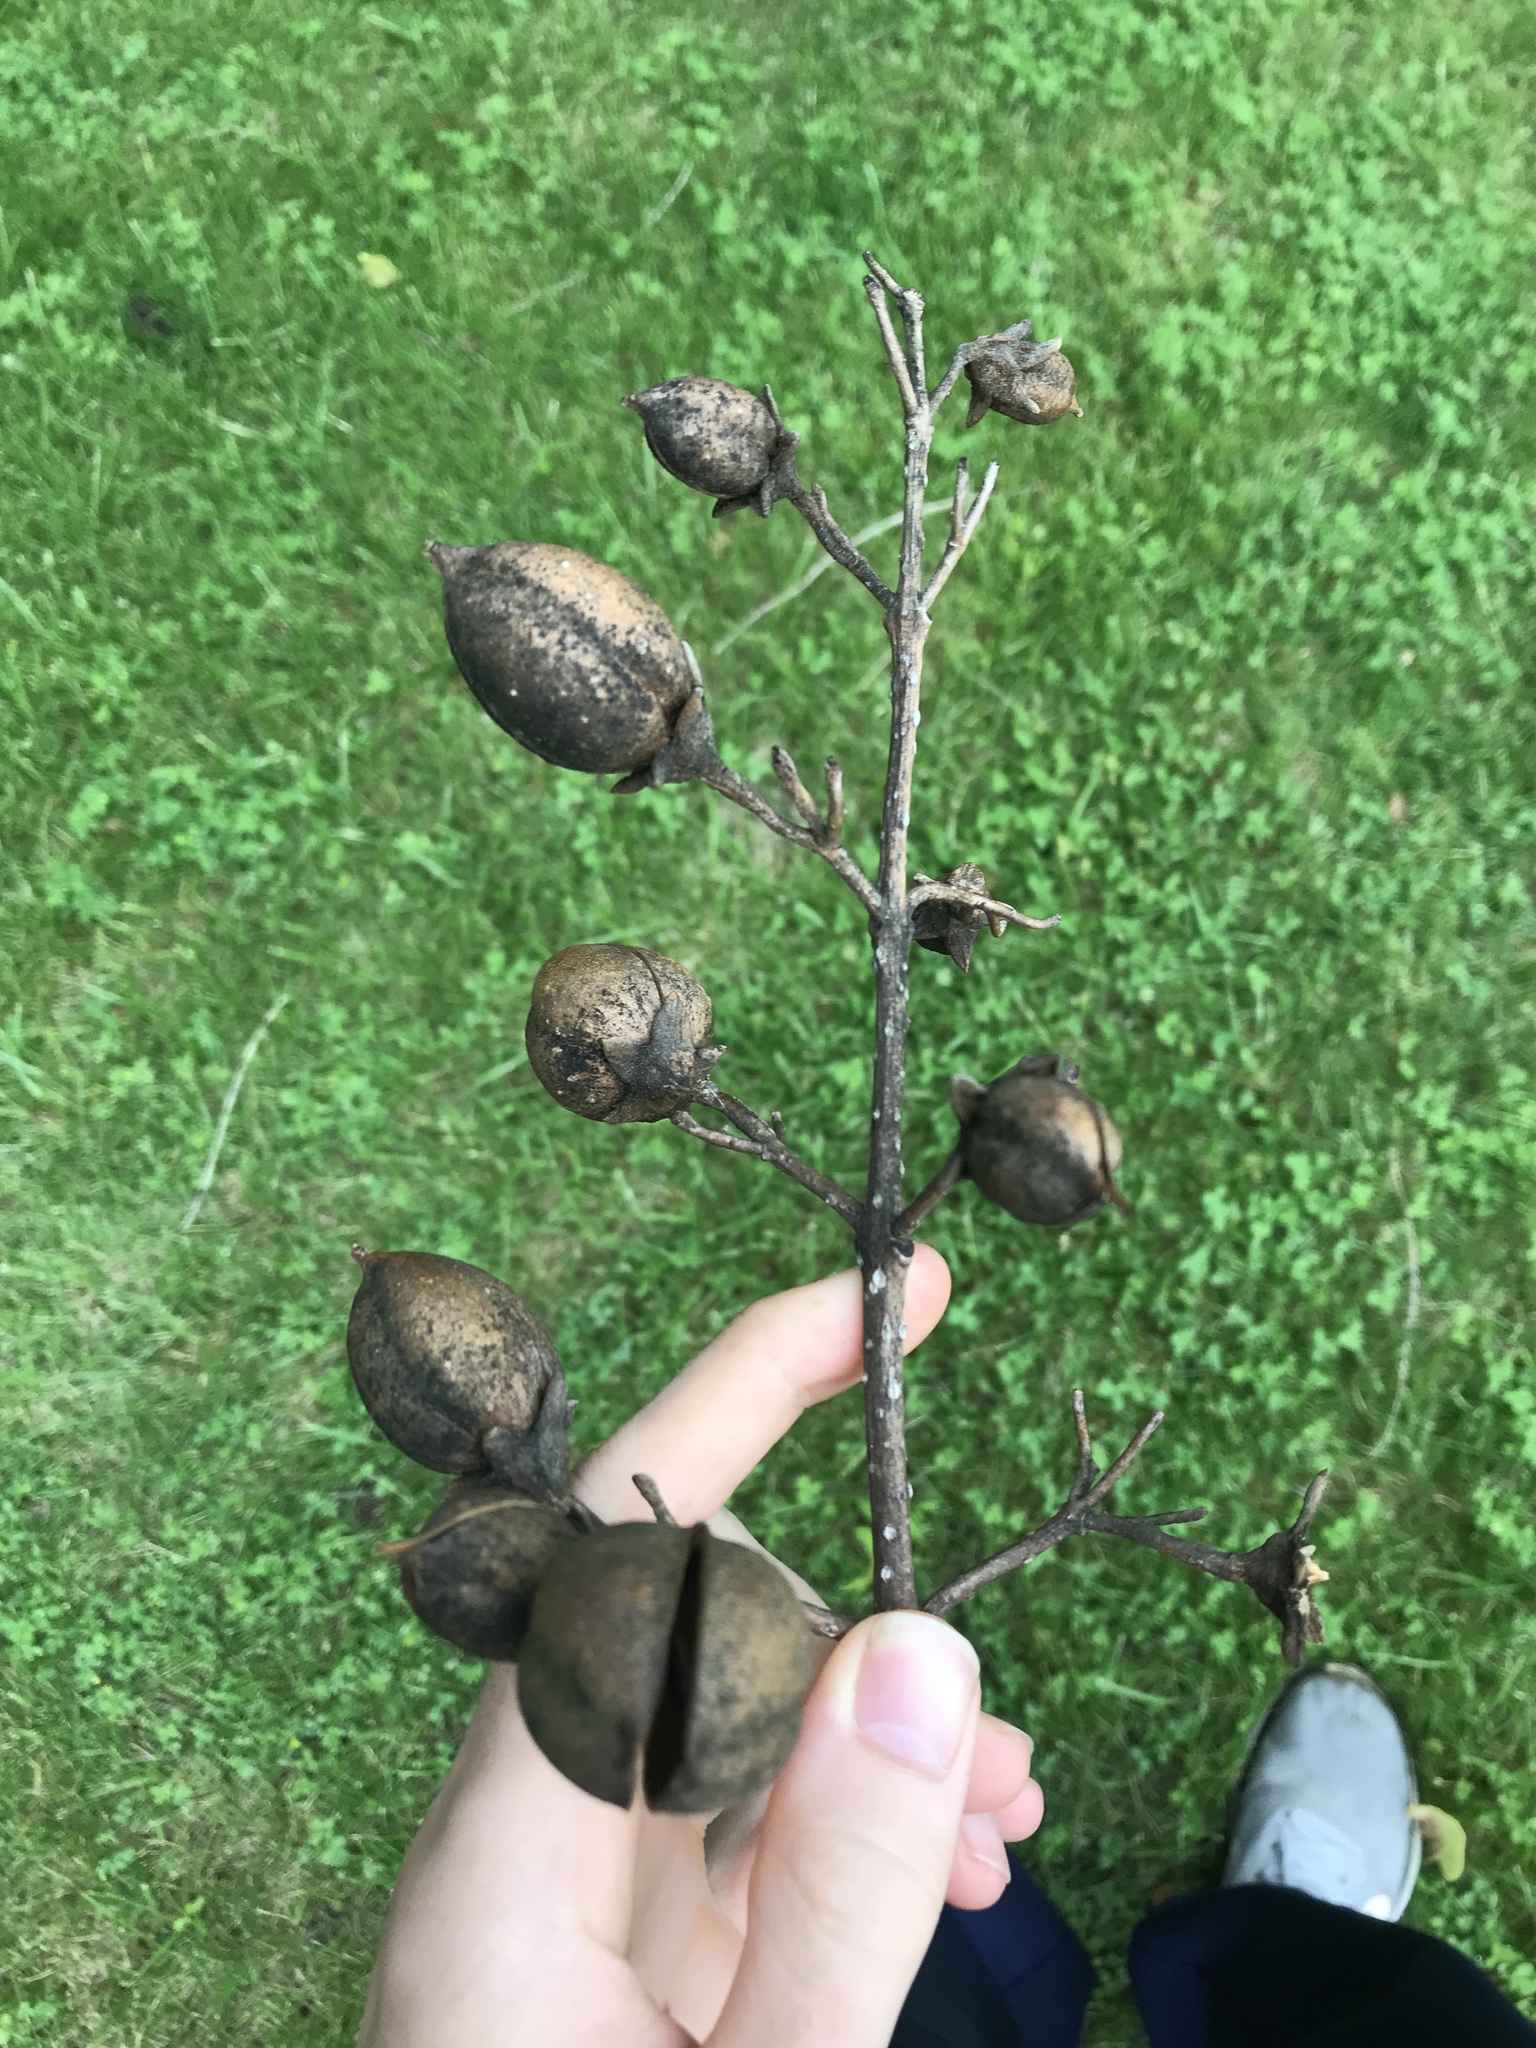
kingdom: Plantae
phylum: Tracheophyta
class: Magnoliopsida
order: Lamiales
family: Paulowniaceae
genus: Paulownia
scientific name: Paulownia tomentosa
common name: Foxglove-tree
